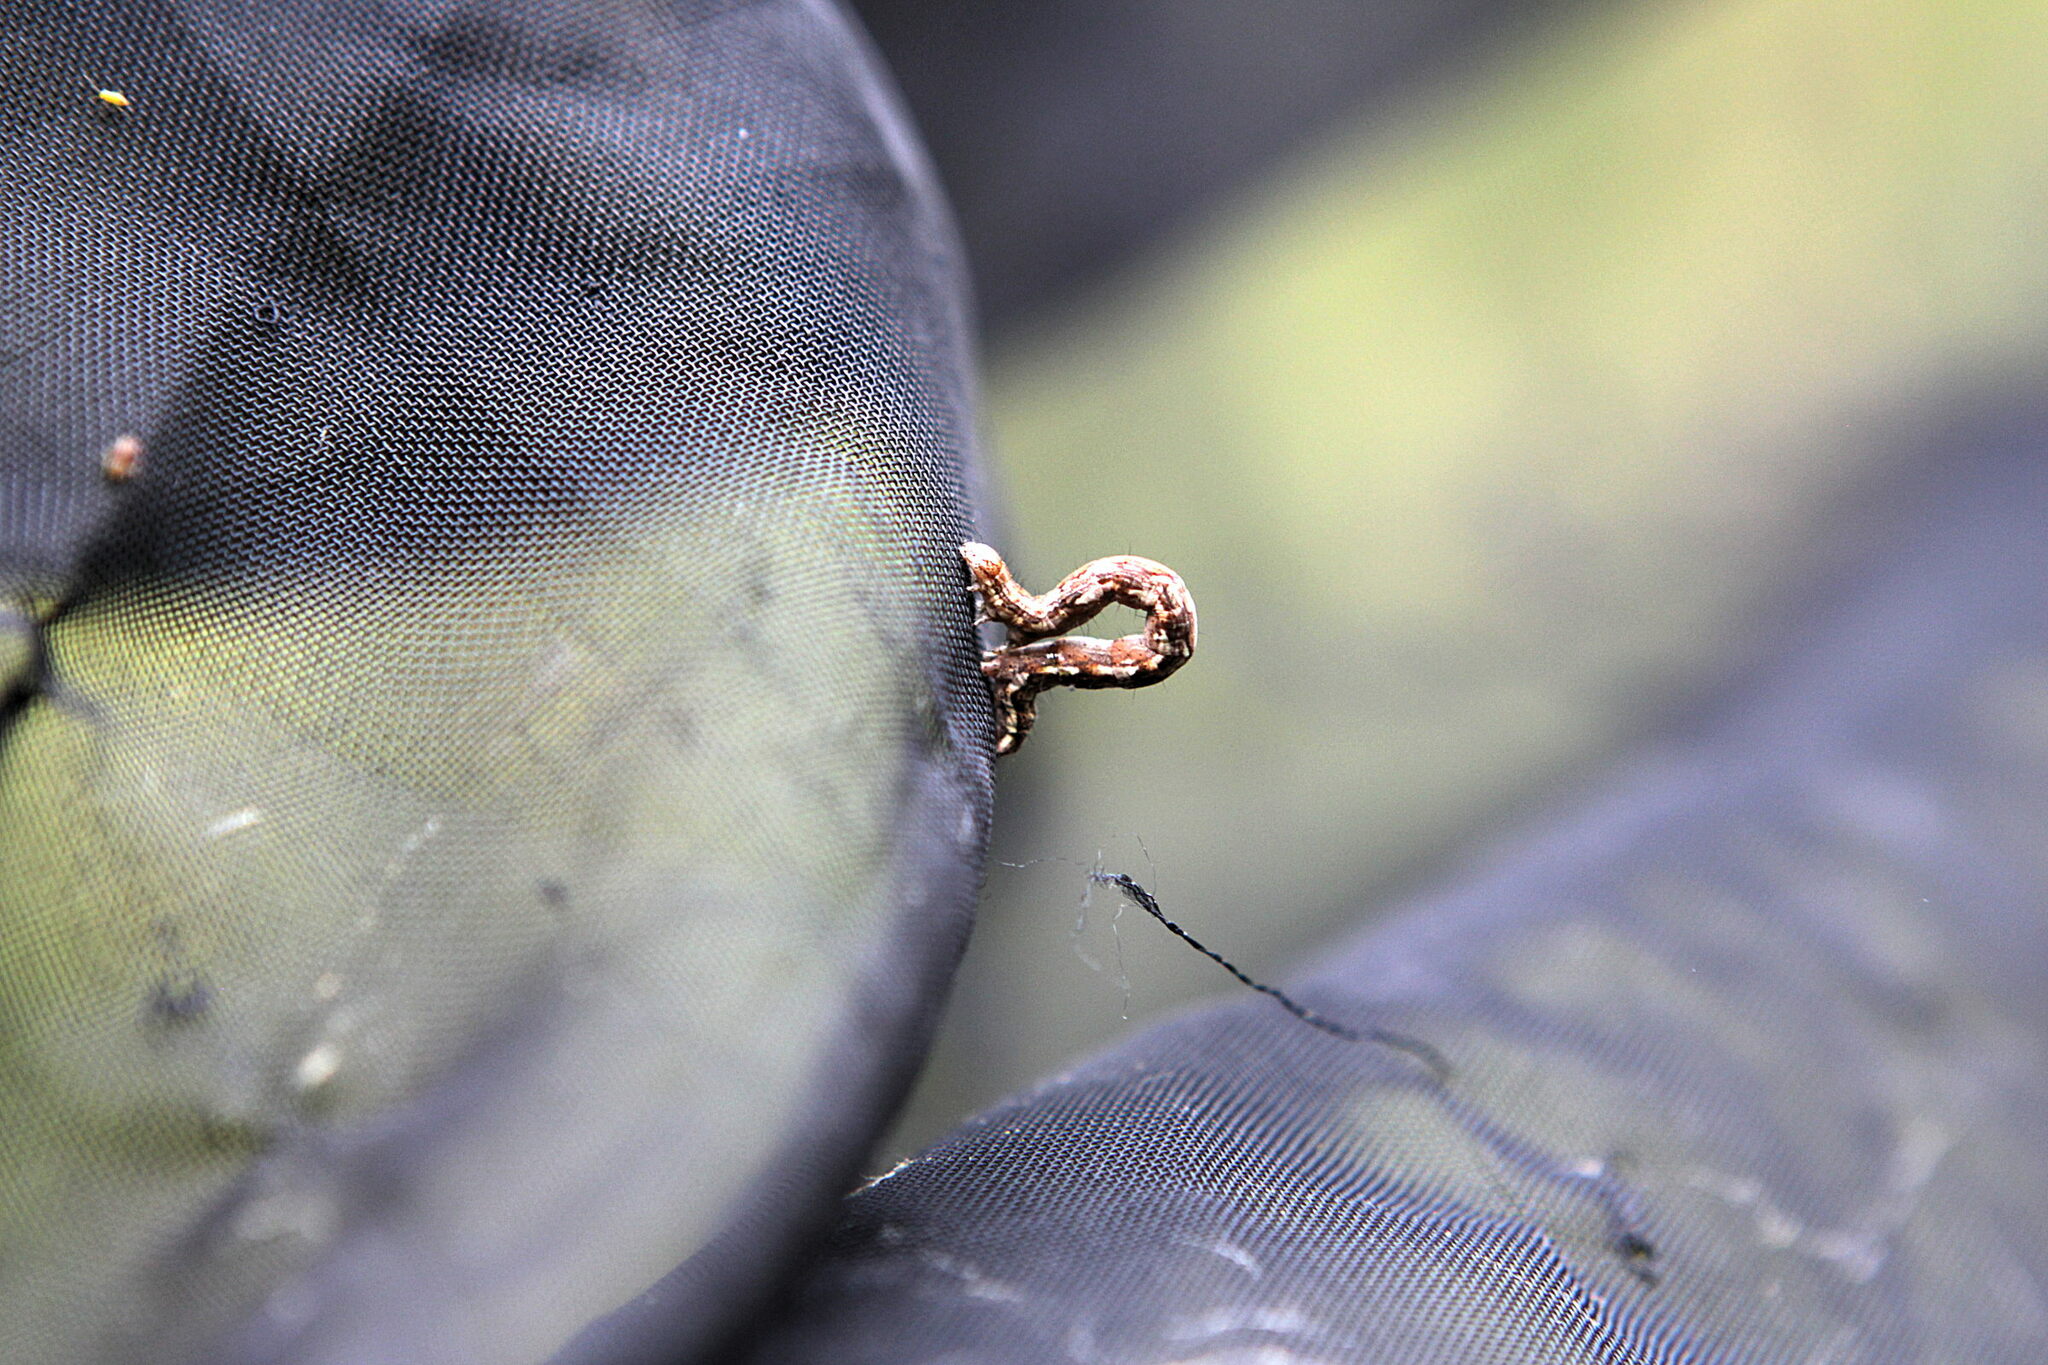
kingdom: Animalia
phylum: Arthropoda
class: Insecta
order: Lepidoptera
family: Geometridae
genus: Pachycnemia
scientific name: Pachycnemia hippocastanaria
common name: Horse chestnut
